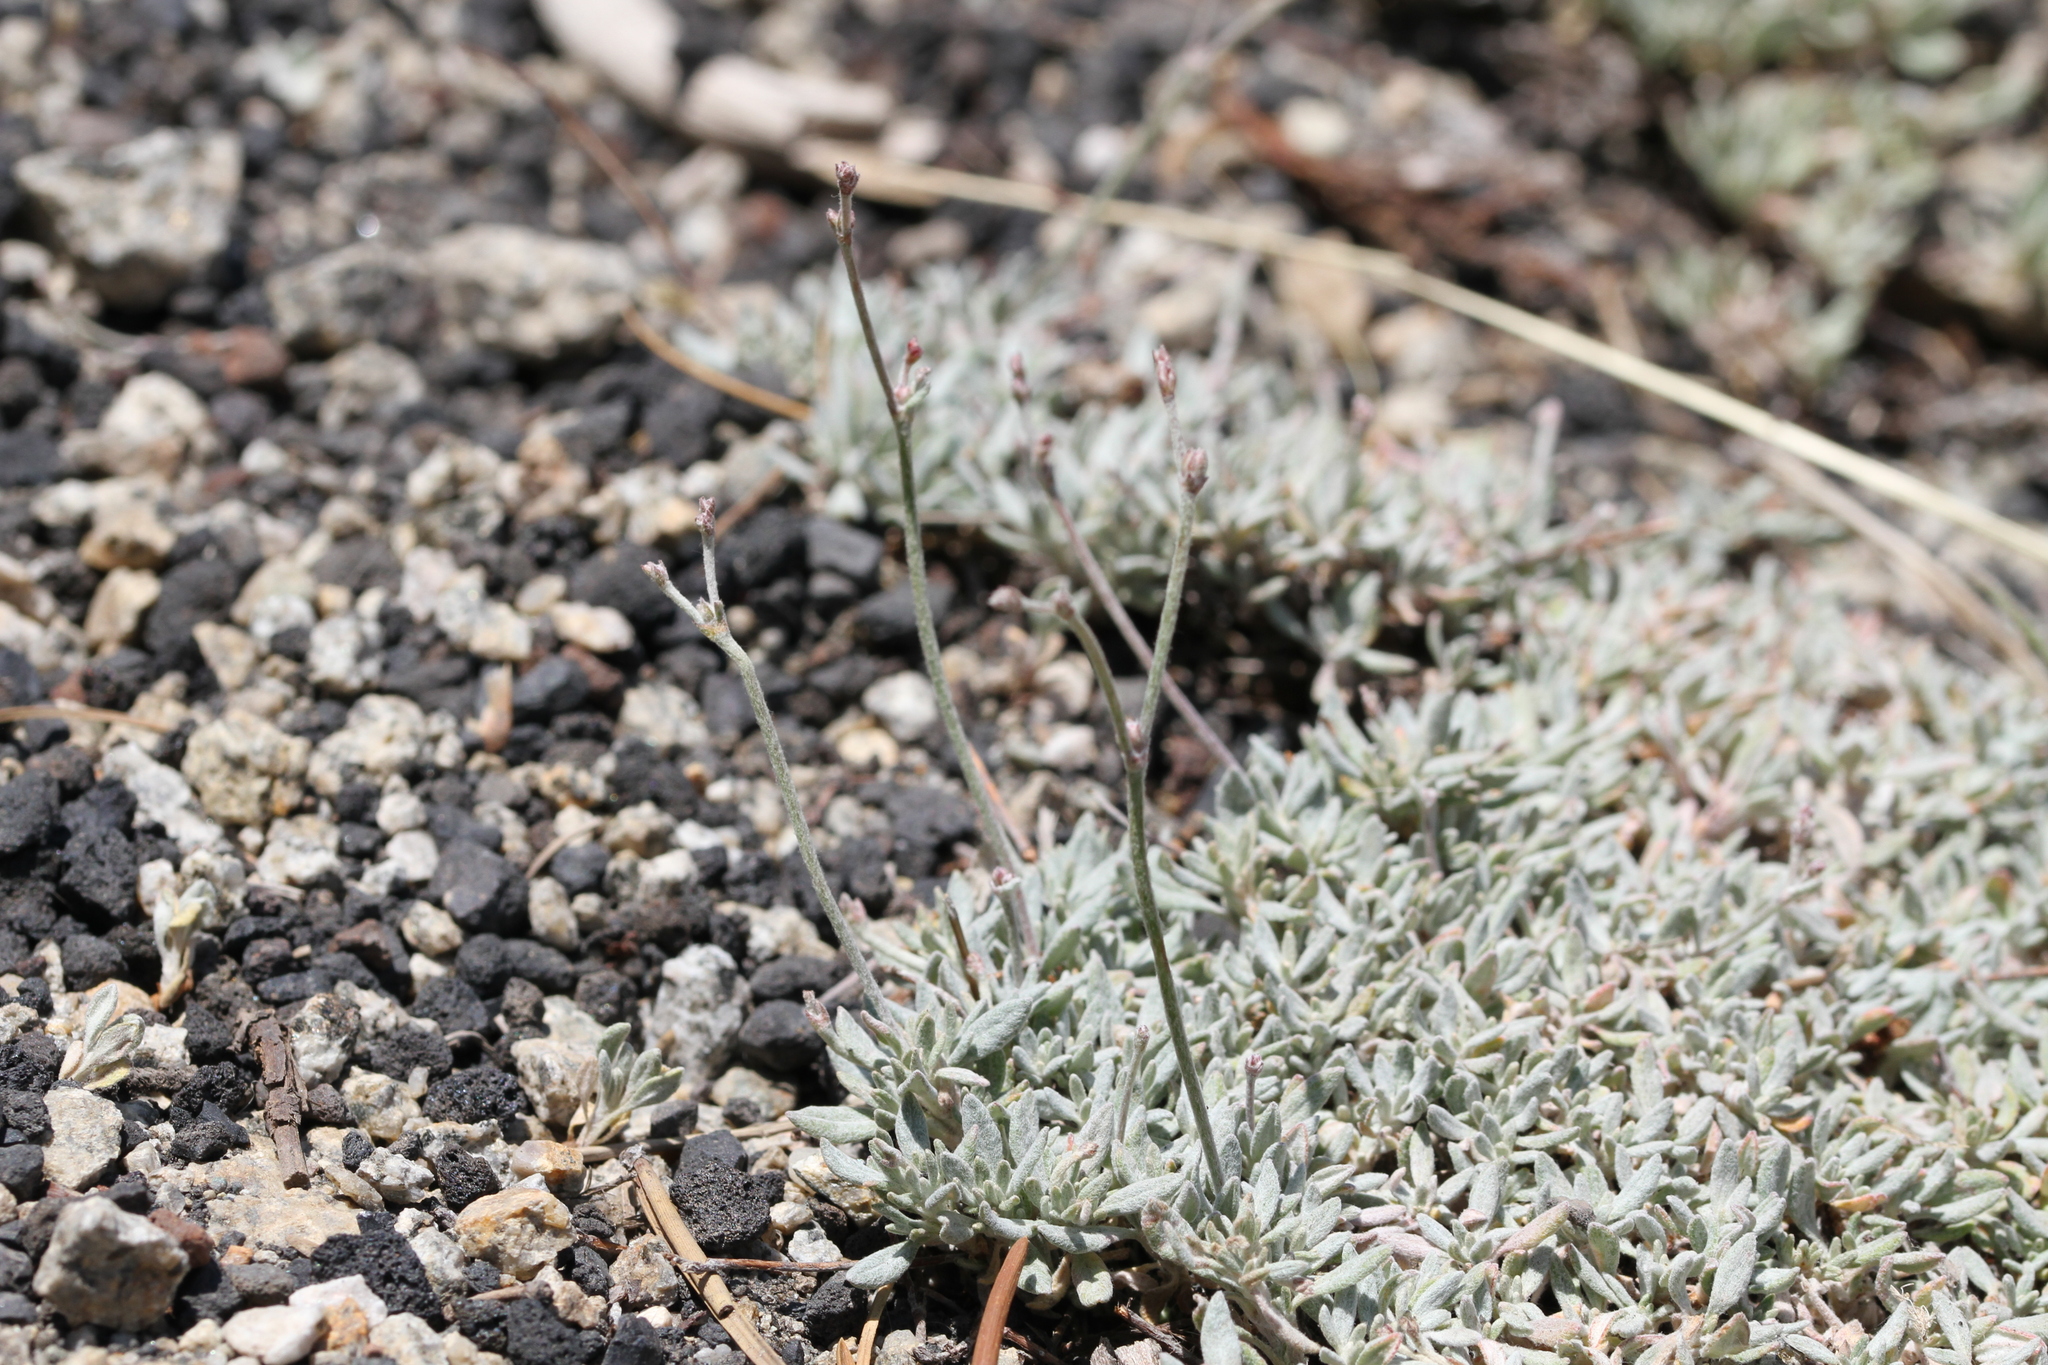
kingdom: Plantae
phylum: Tracheophyta
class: Magnoliopsida
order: Caryophyllales
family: Polygonaceae
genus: Eriogonum
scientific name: Eriogonum wrightii
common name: Bastard-sage
